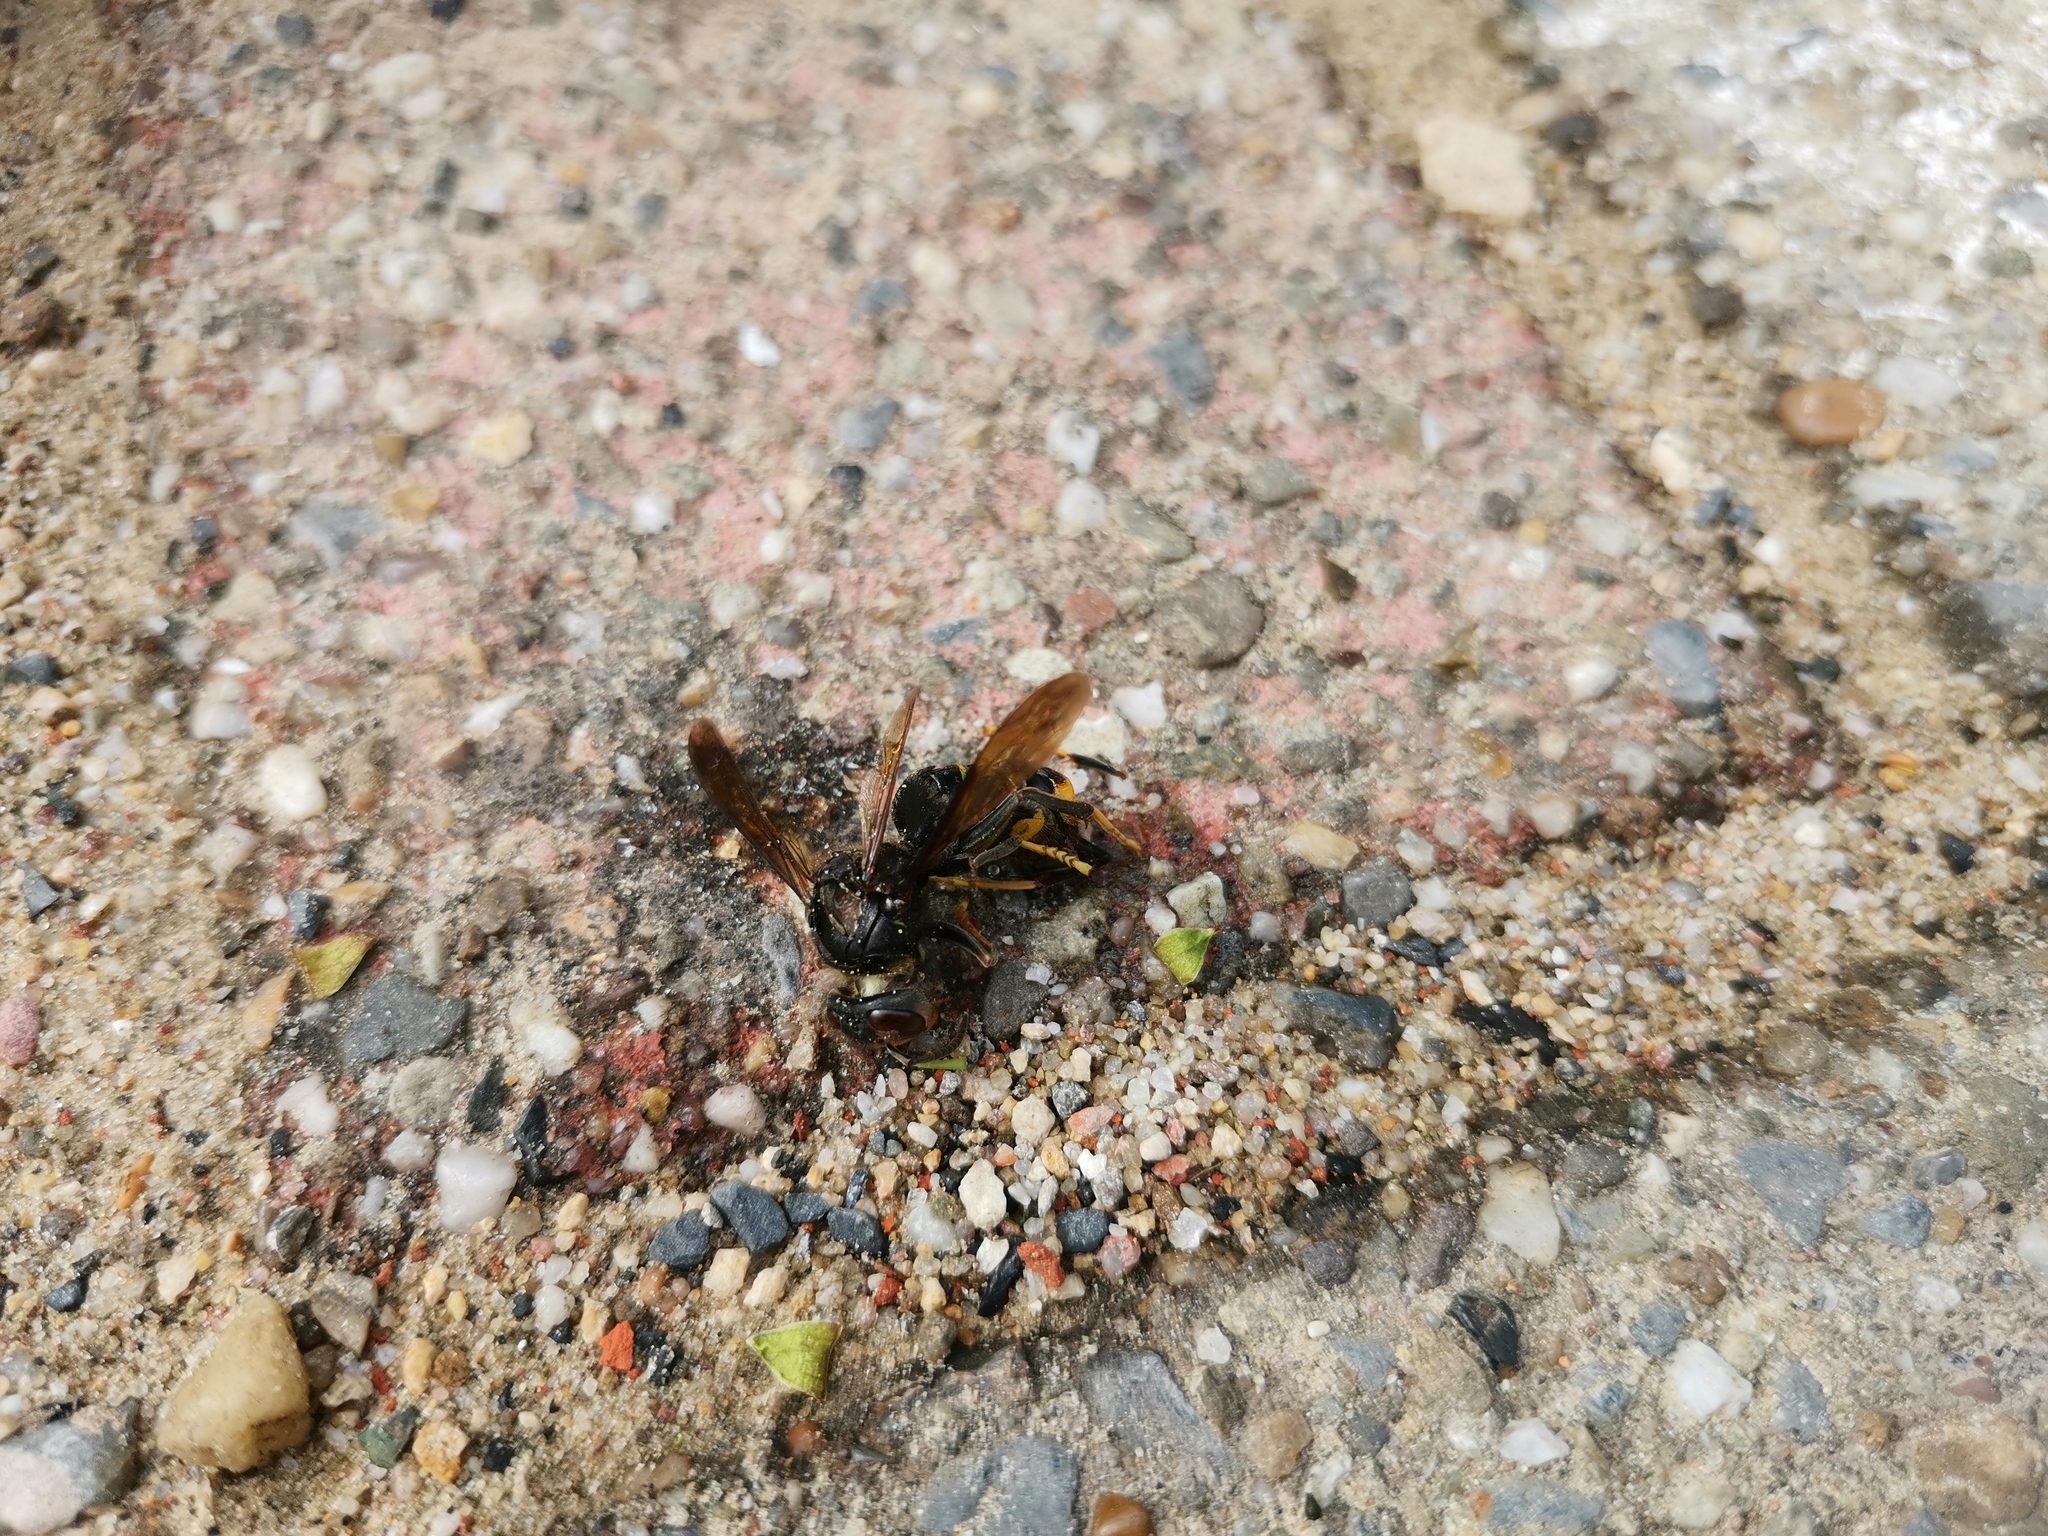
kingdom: Animalia
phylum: Arthropoda
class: Insecta
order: Hymenoptera
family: Vespidae
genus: Vespa
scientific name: Vespa velutina
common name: Asian hornet
